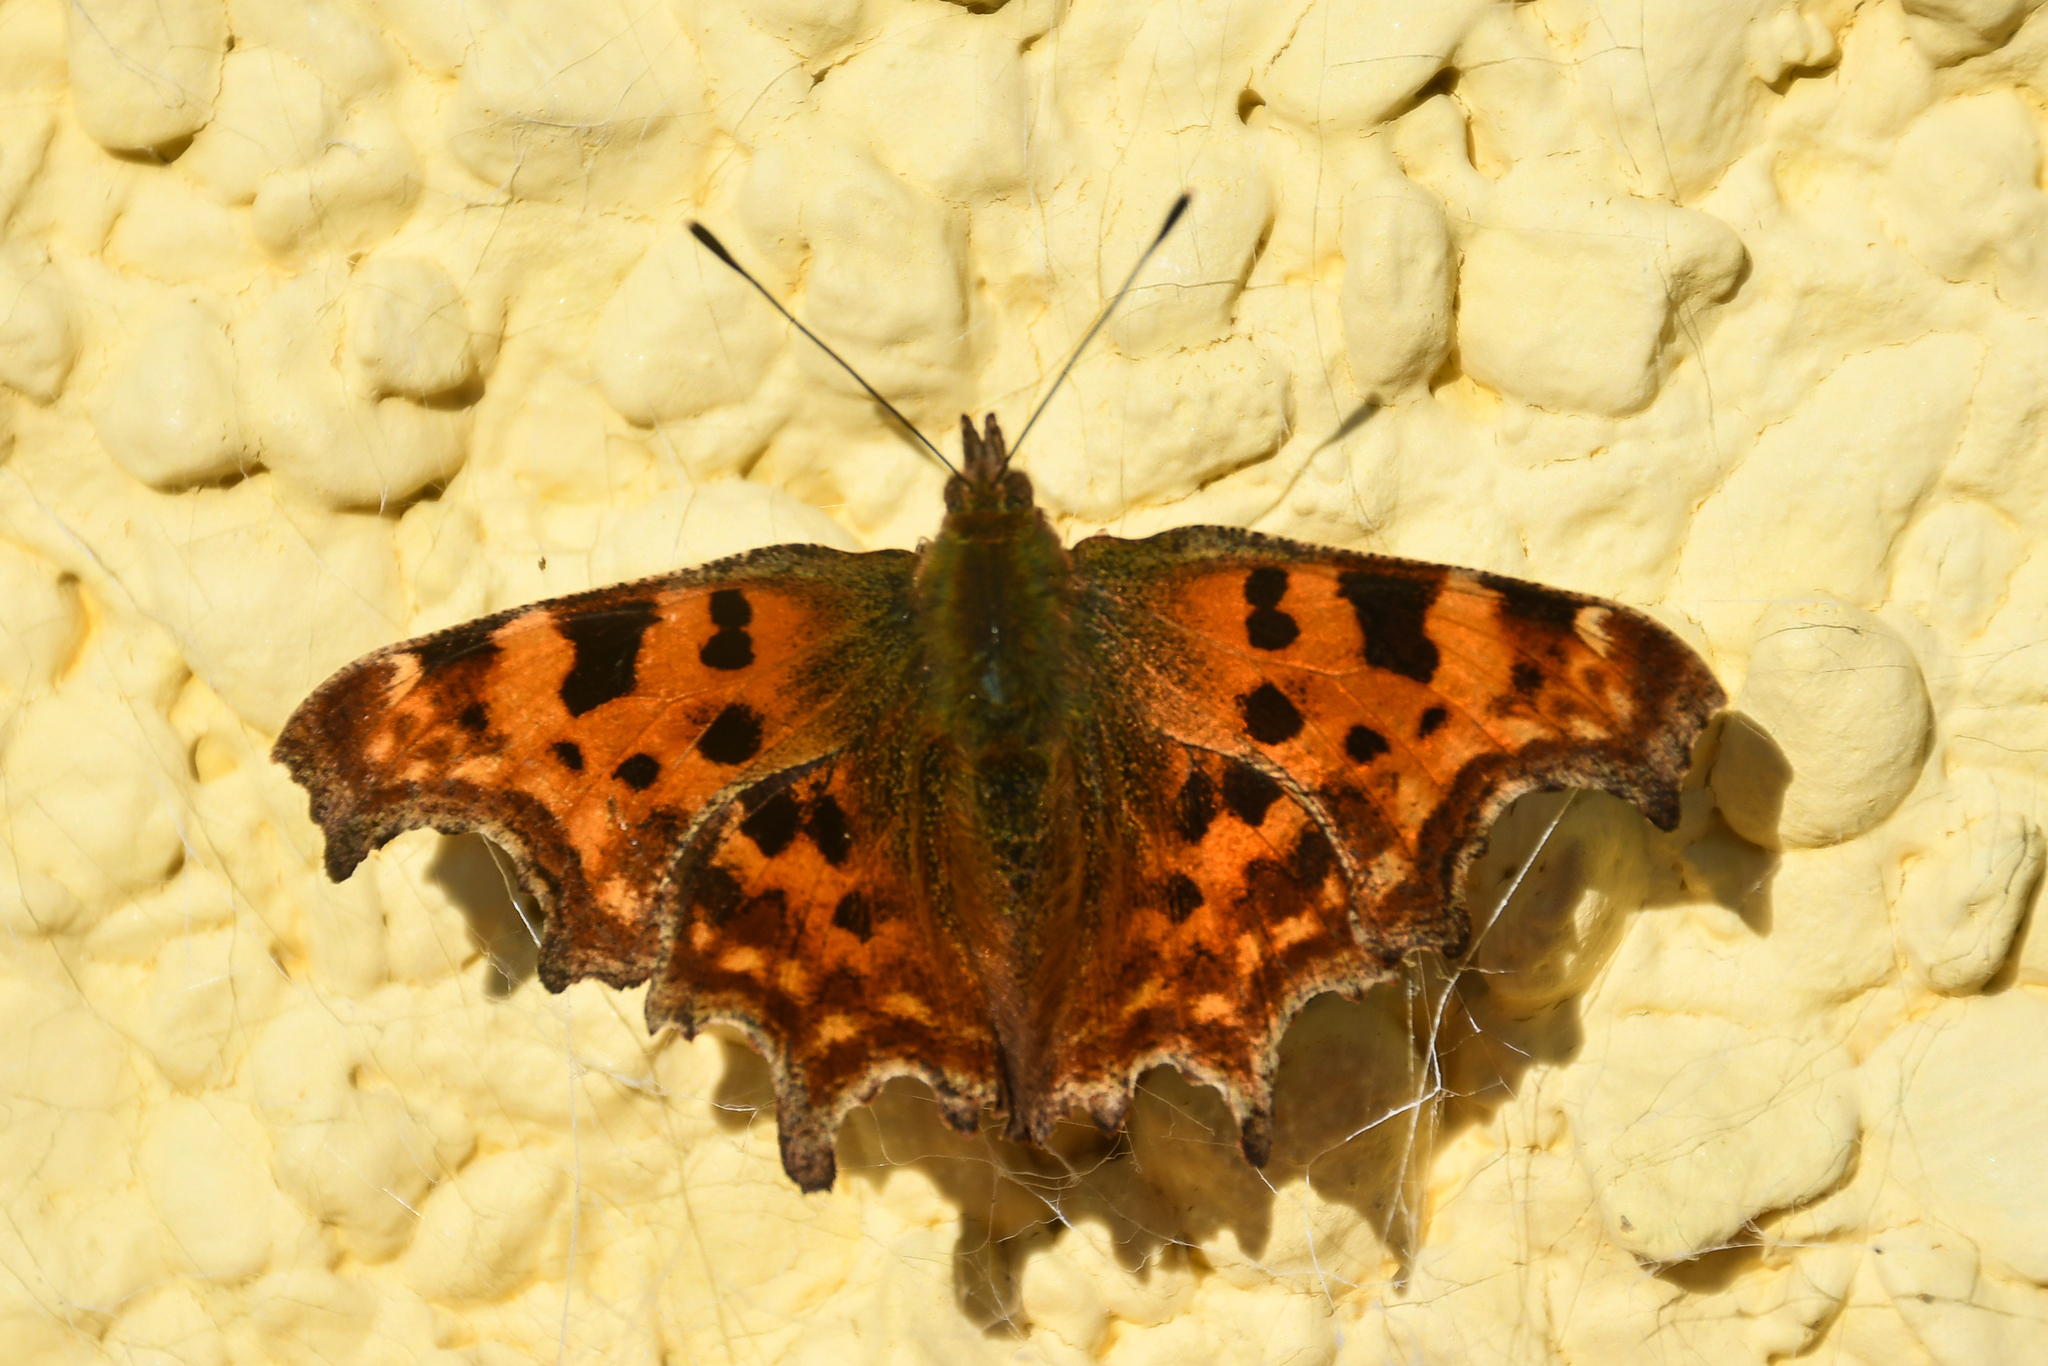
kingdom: Animalia
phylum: Arthropoda
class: Insecta
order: Lepidoptera
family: Nymphalidae
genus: Polygonia
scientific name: Polygonia c-album
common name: Comma
